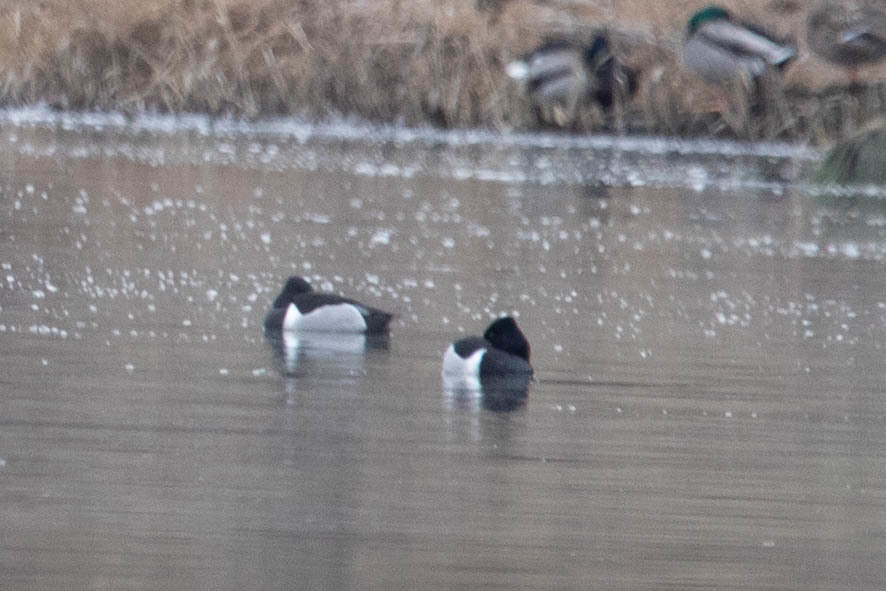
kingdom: Animalia
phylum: Chordata
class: Aves
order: Anseriformes
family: Anatidae
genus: Aythya
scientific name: Aythya collaris
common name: Ring-necked duck
